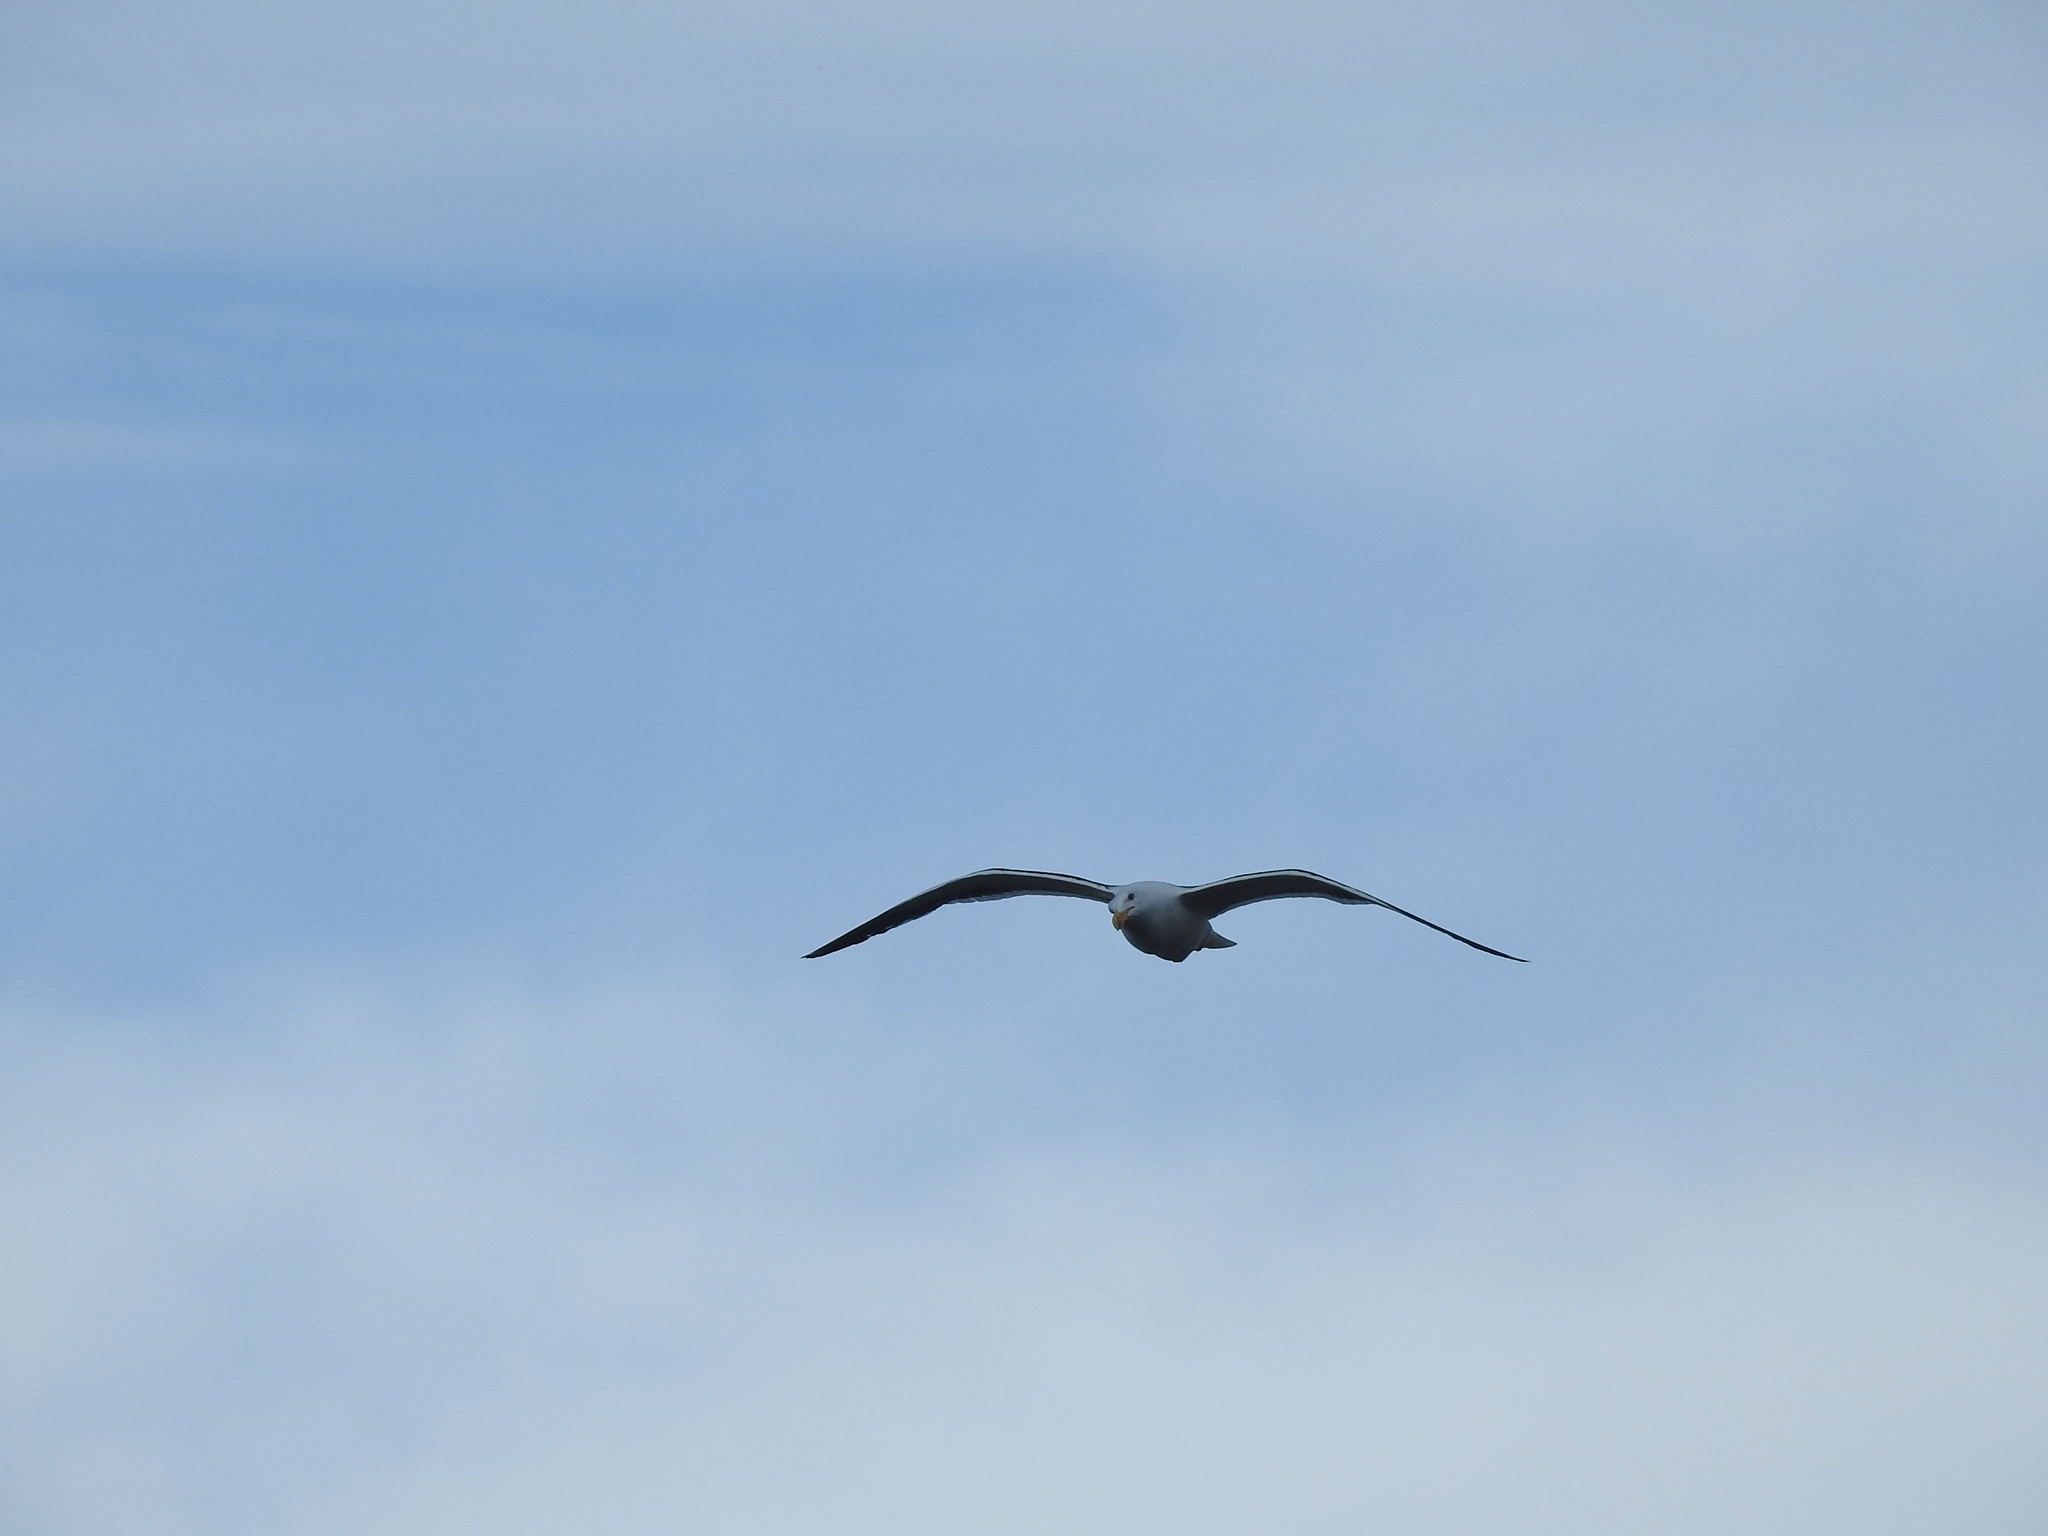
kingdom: Animalia
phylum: Chordata
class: Aves
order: Charadriiformes
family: Laridae
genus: Larus
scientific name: Larus dominicanus
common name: Kelp gull
